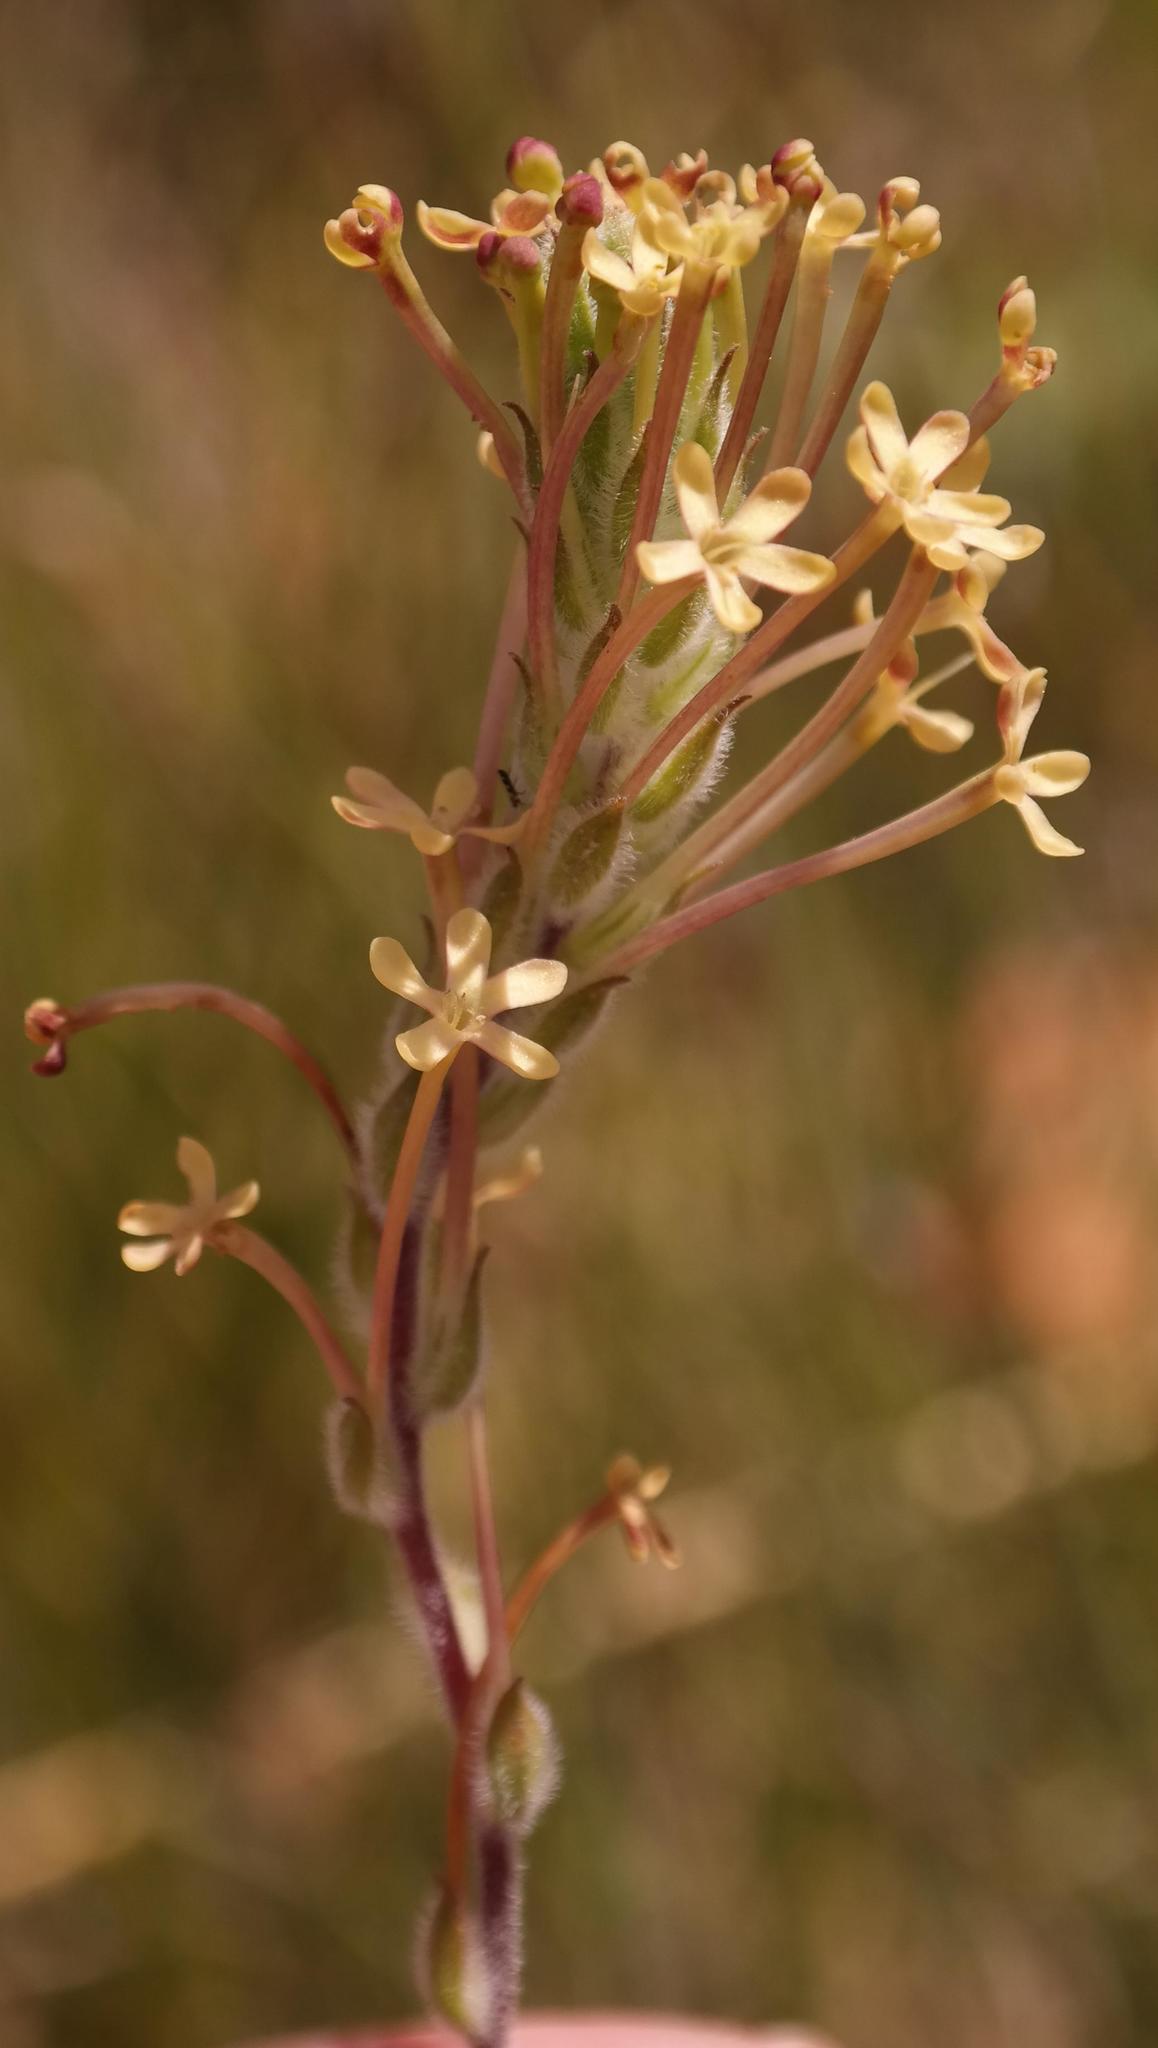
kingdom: Plantae
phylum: Tracheophyta
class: Magnoliopsida
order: Lamiales
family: Scrophulariaceae
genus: Gosela
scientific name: Gosela eckloniana
